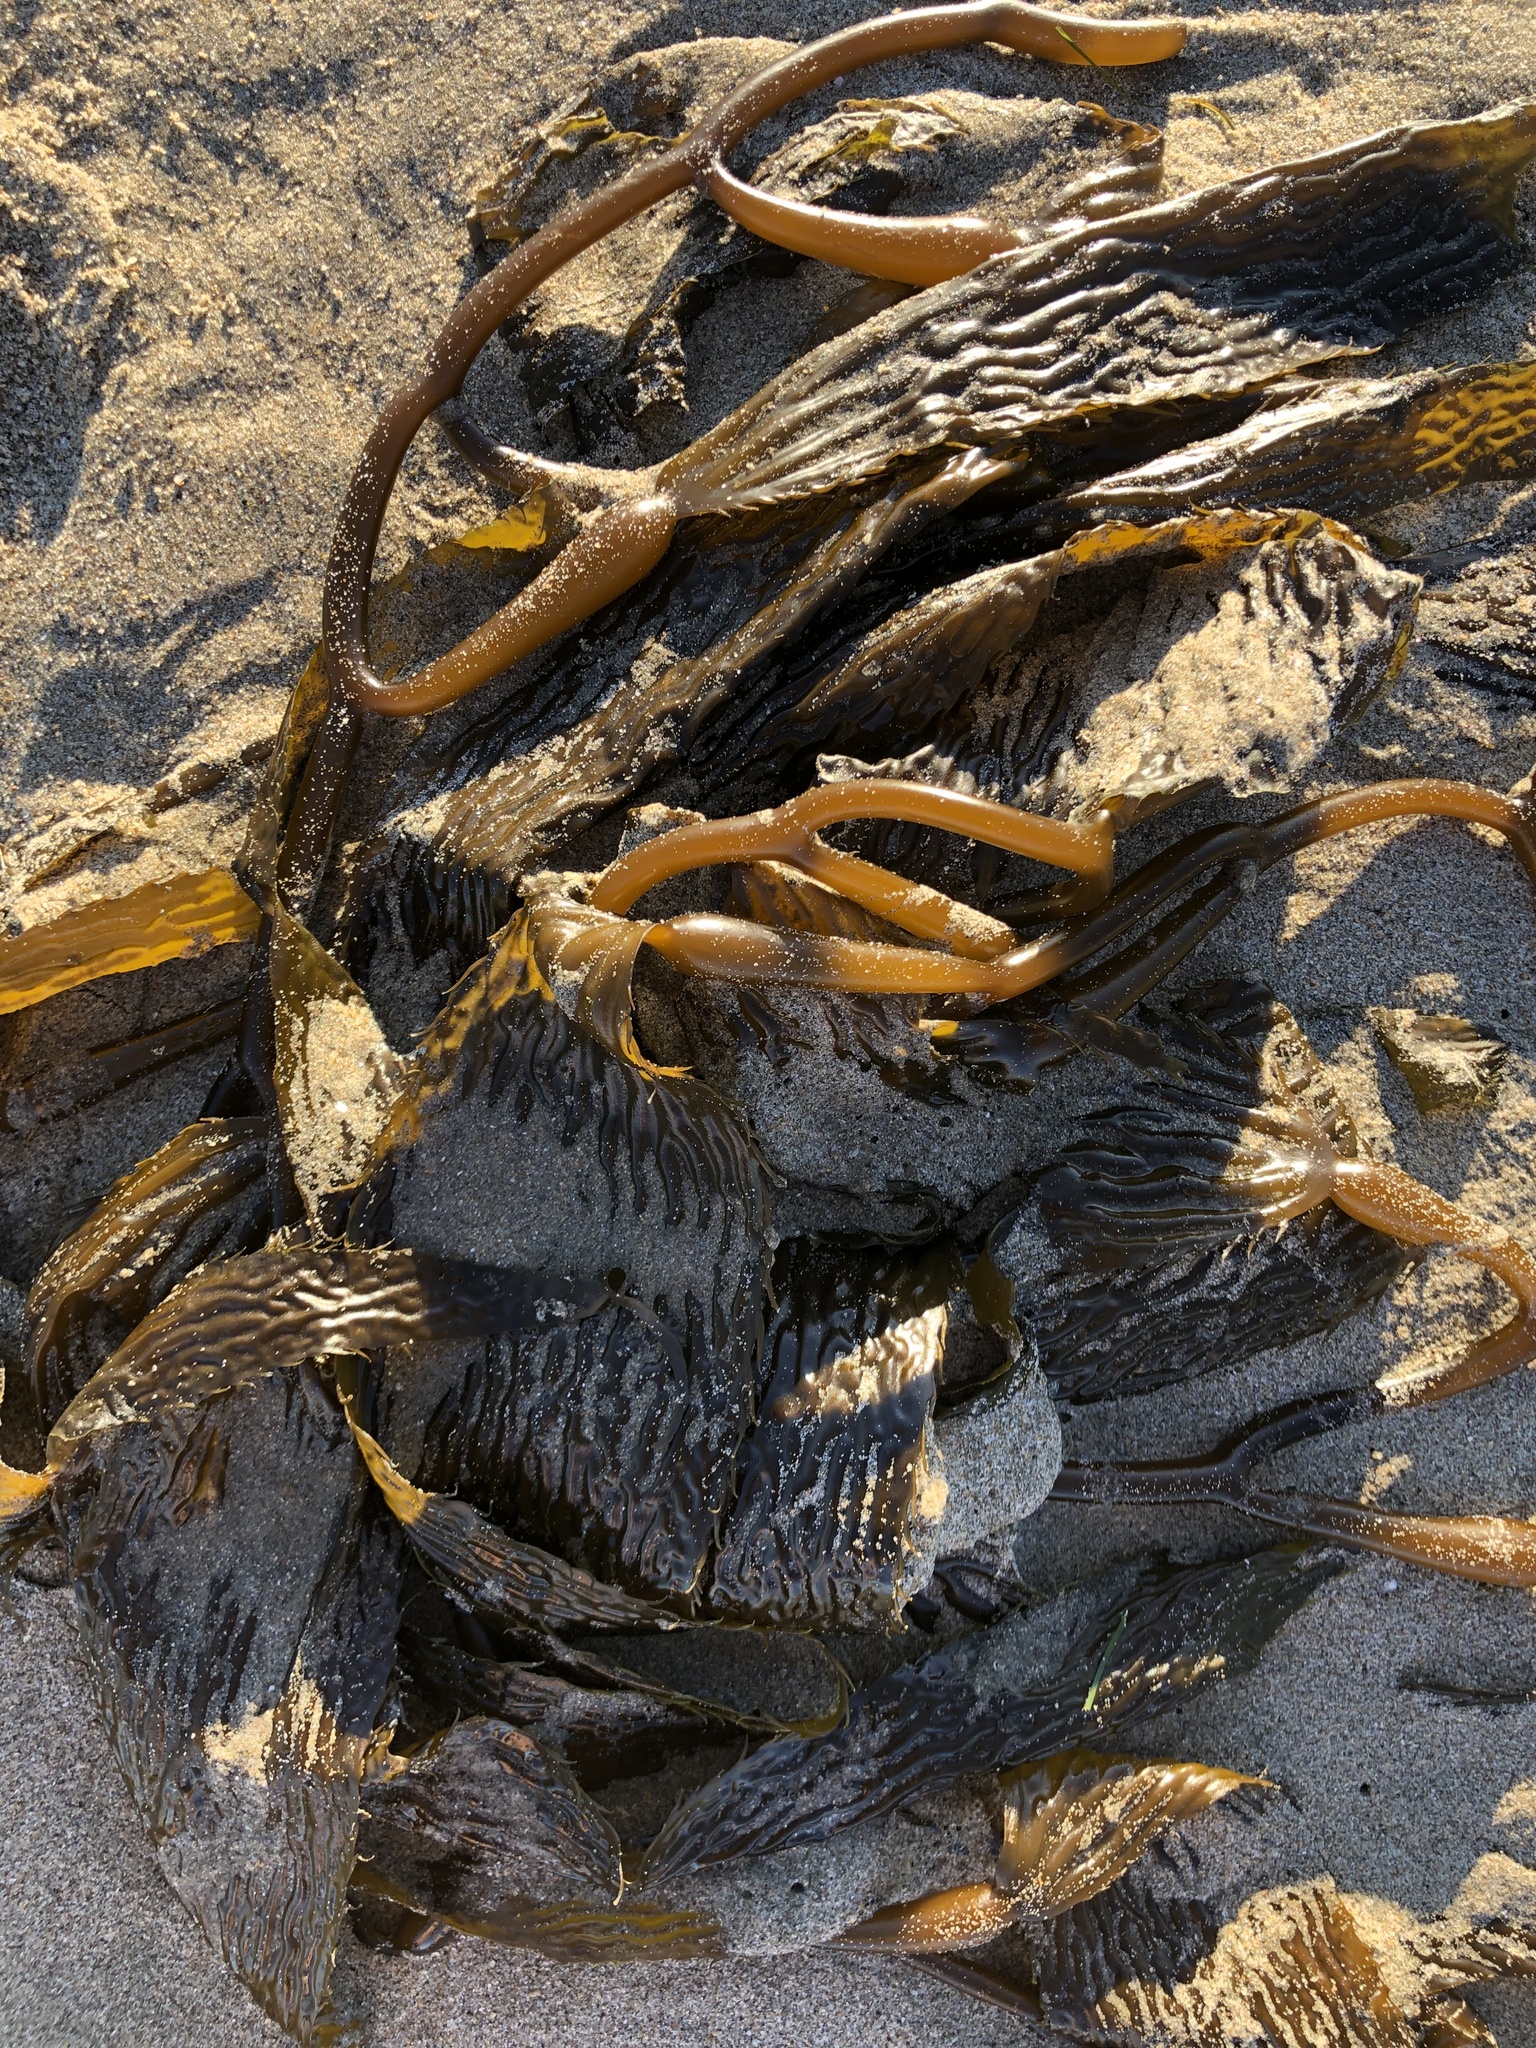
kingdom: Chromista
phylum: Ochrophyta
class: Phaeophyceae
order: Laminariales
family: Laminariaceae
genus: Macrocystis
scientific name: Macrocystis pyrifera
